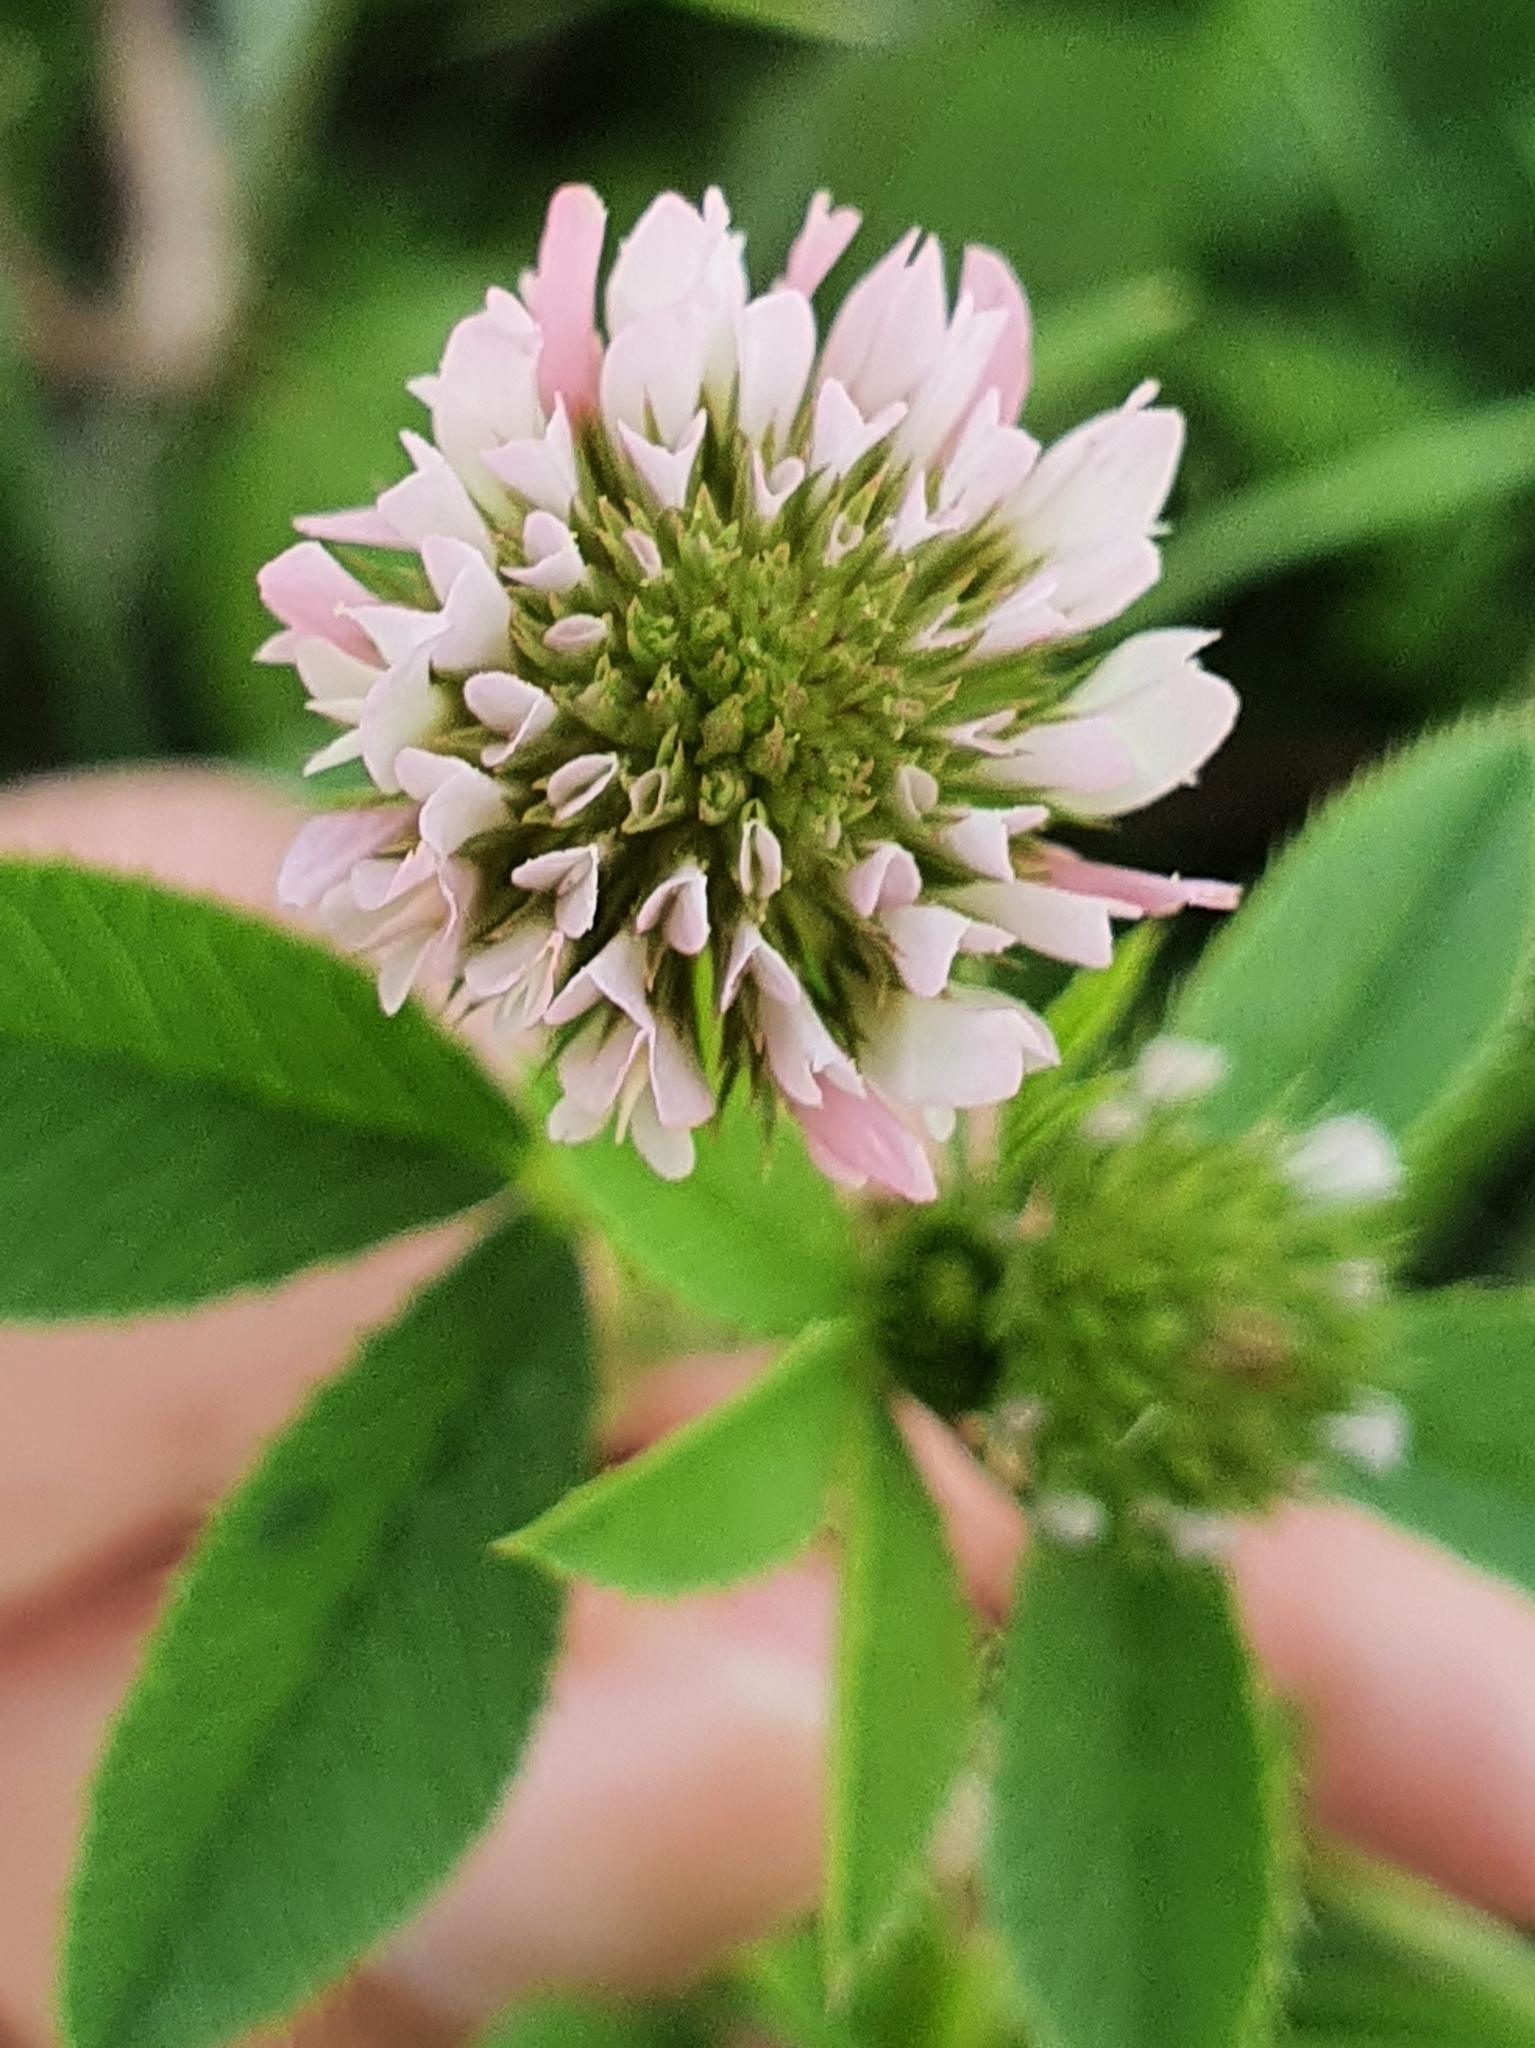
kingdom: Plantae
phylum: Tracheophyta
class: Magnoliopsida
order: Fabales
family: Fabaceae
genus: Trifolium
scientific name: Trifolium isthmocarpum
